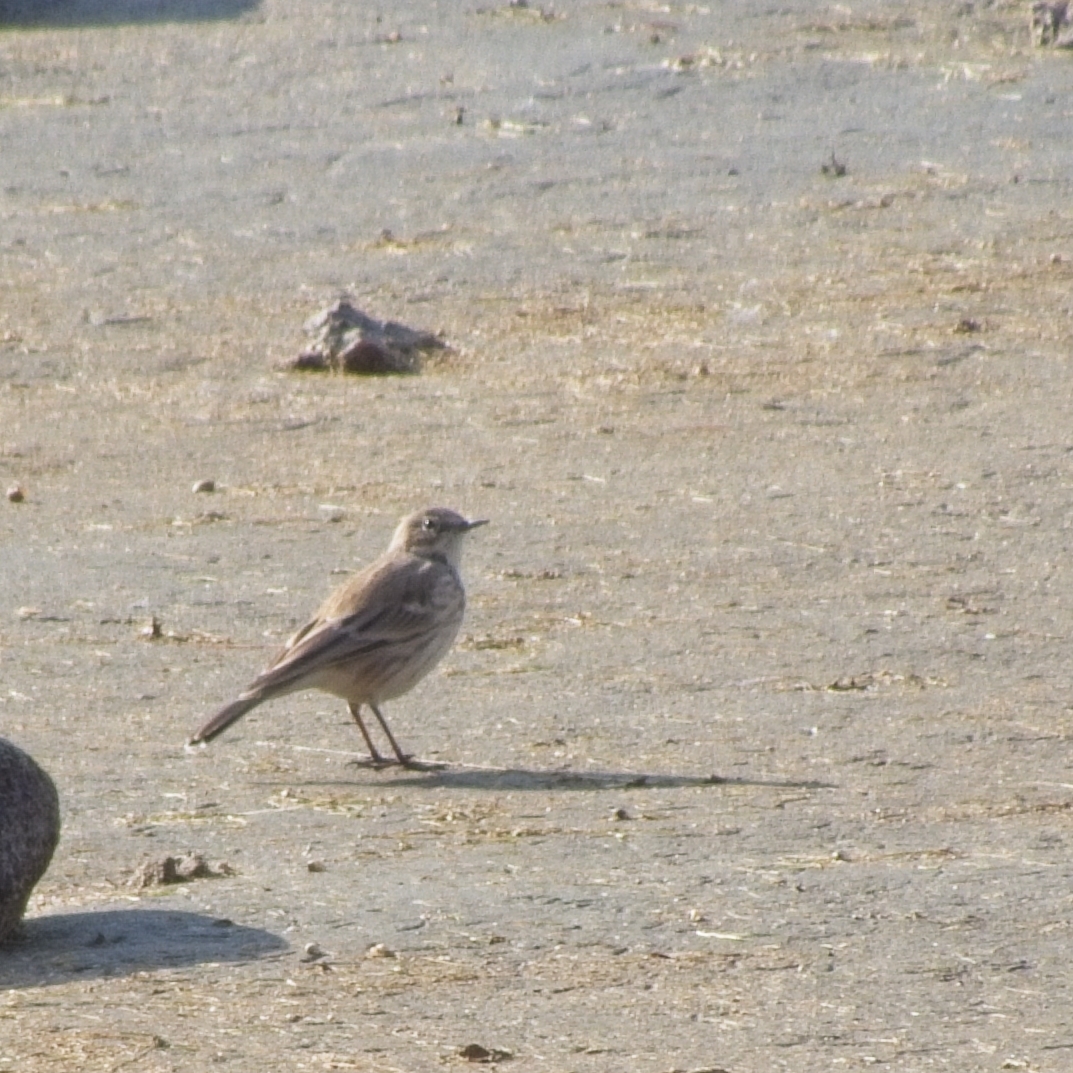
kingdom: Animalia
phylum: Chordata
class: Aves
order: Passeriformes
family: Motacillidae
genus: Anthus
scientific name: Anthus spinoletta
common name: Water pipit
